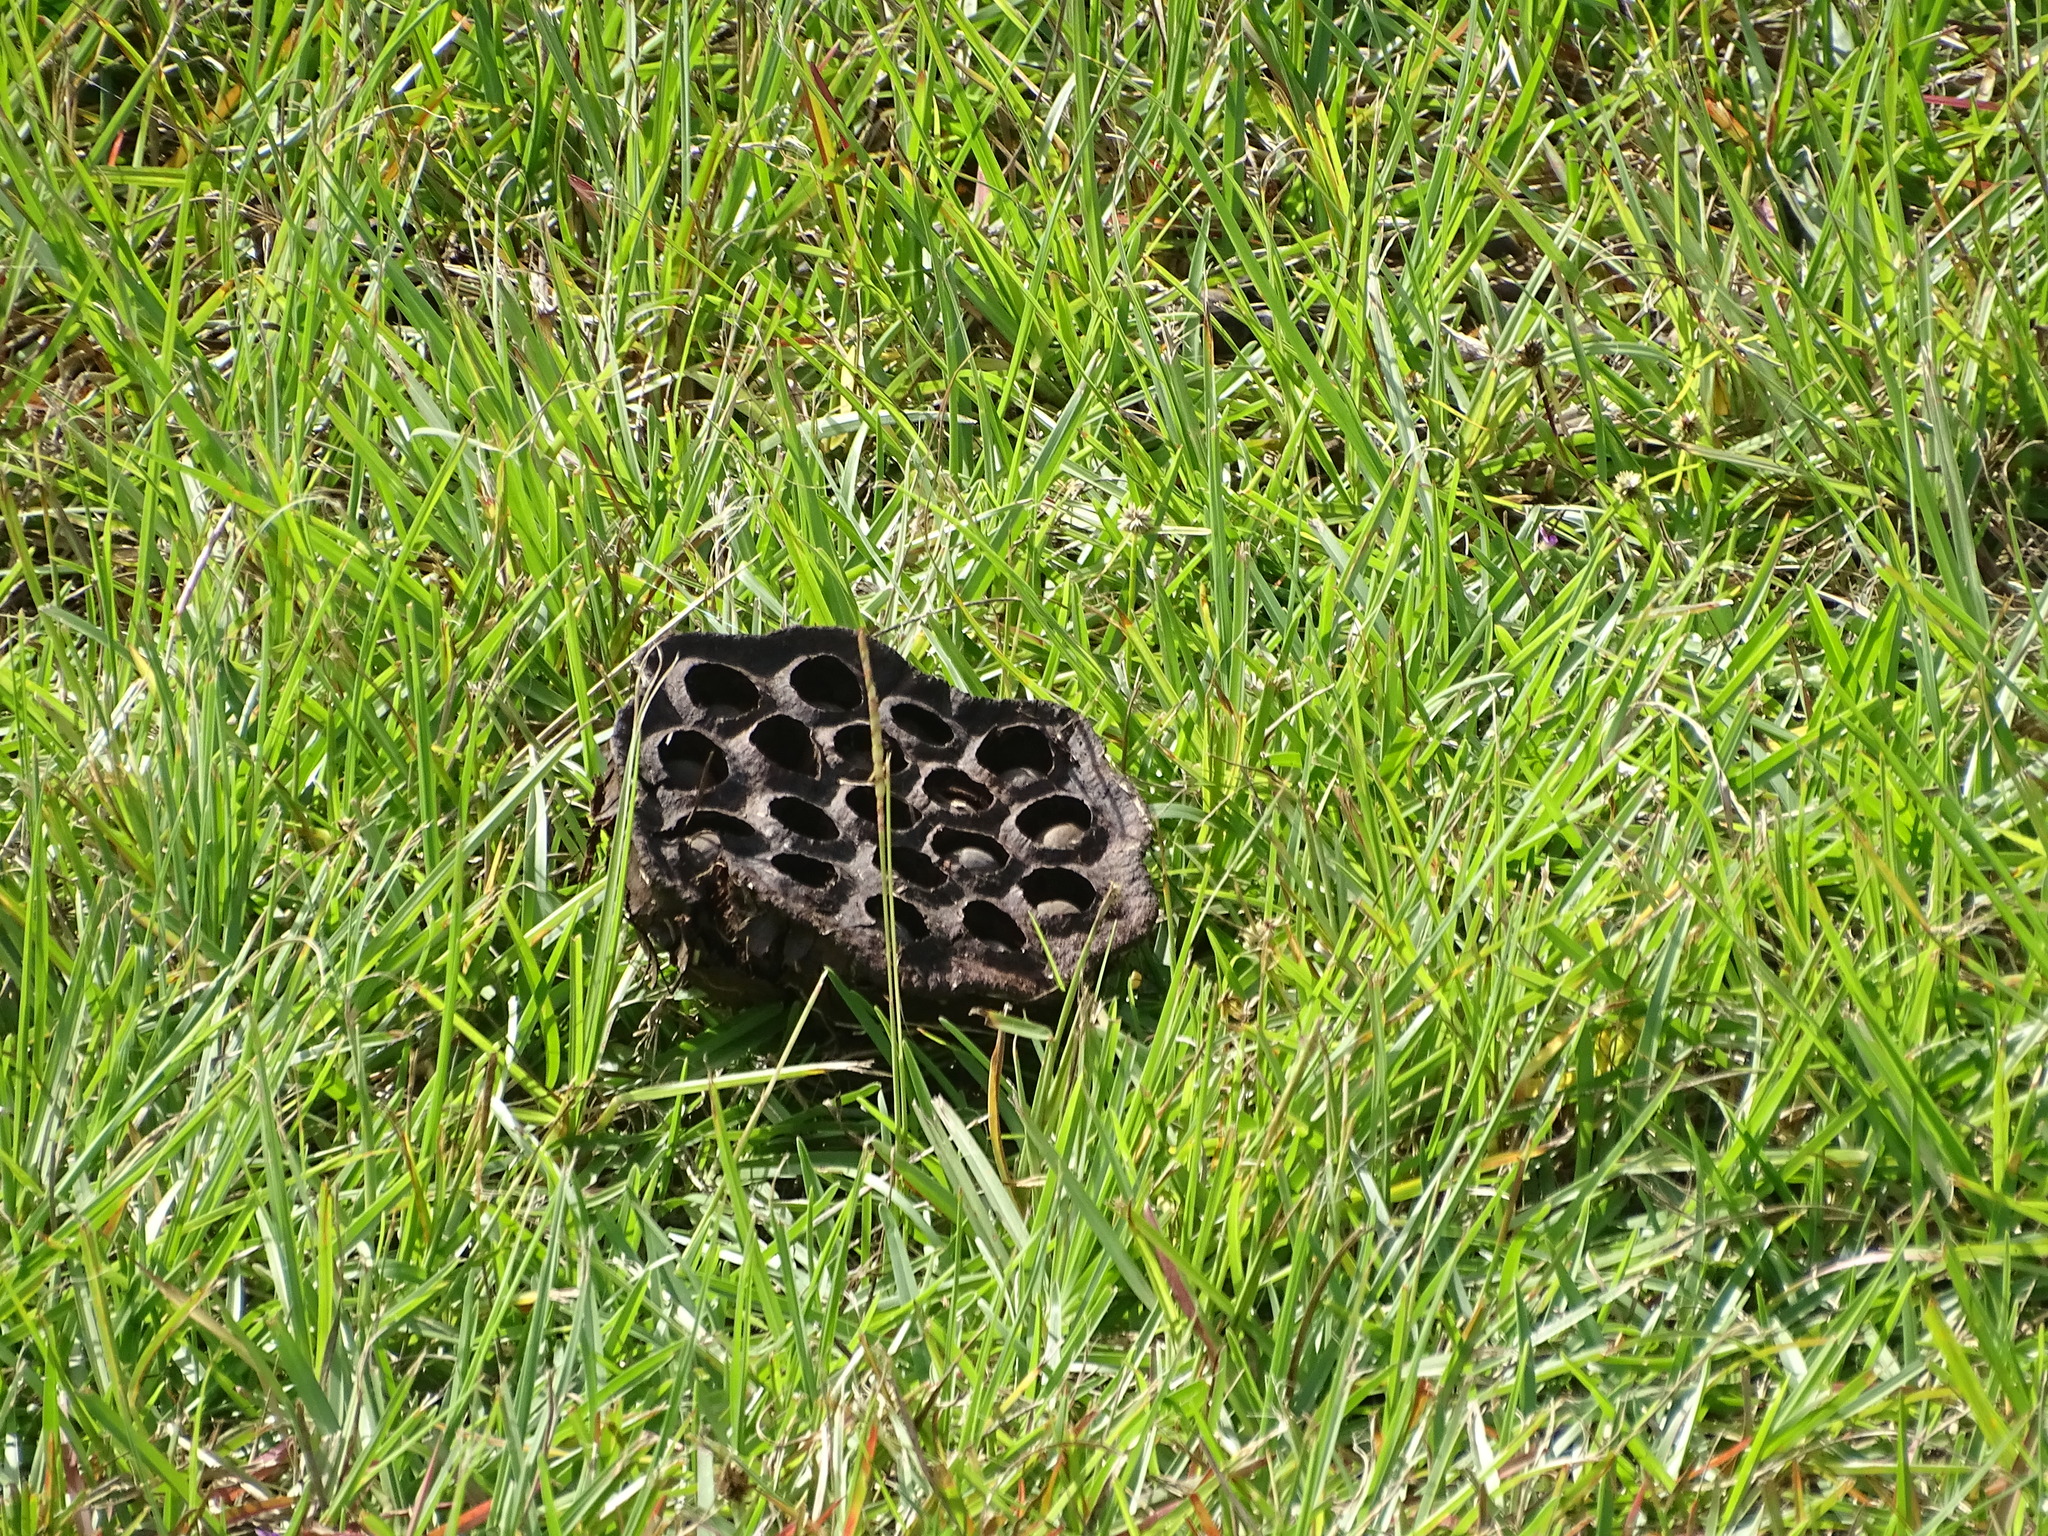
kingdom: Plantae
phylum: Tracheophyta
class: Magnoliopsida
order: Proteales
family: Nelumbonaceae
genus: Nelumbo
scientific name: Nelumbo lutea
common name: American lotus
